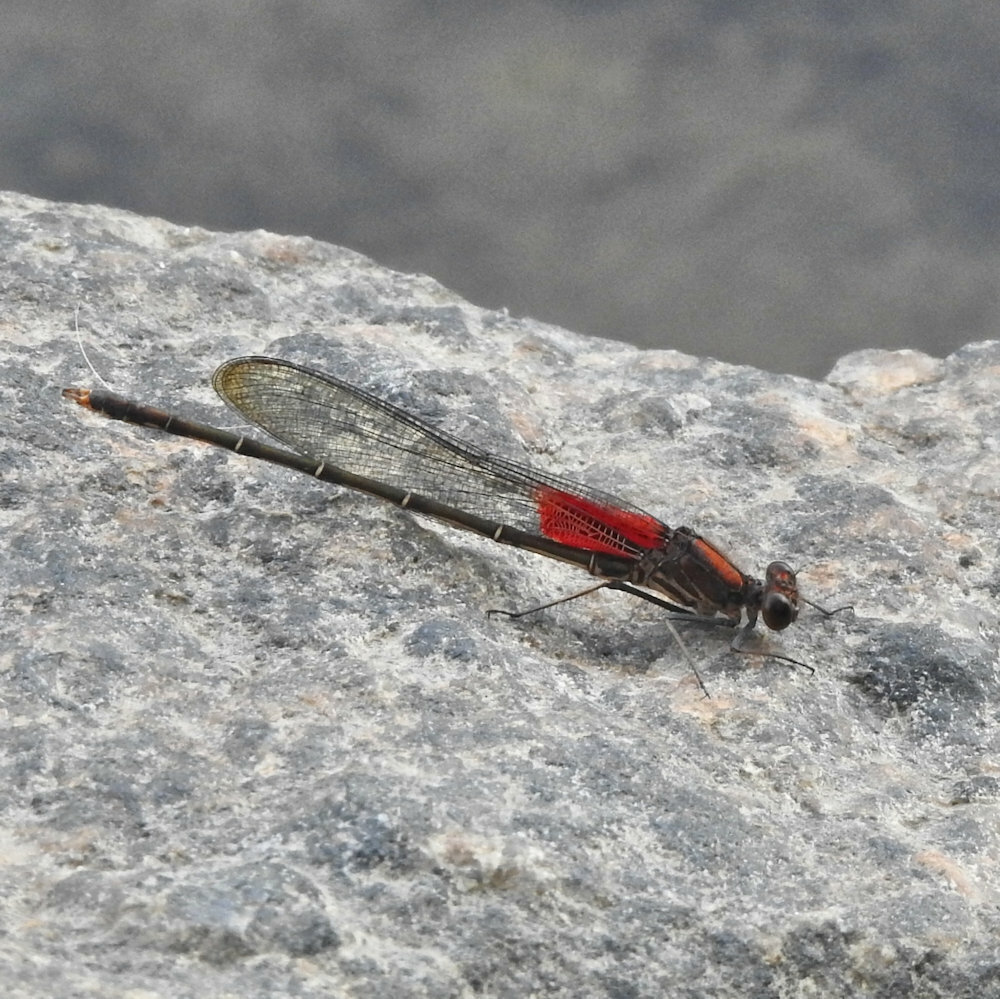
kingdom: Animalia
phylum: Arthropoda
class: Insecta
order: Odonata
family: Calopterygidae
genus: Hetaerina
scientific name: Hetaerina americana
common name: American rubyspot
